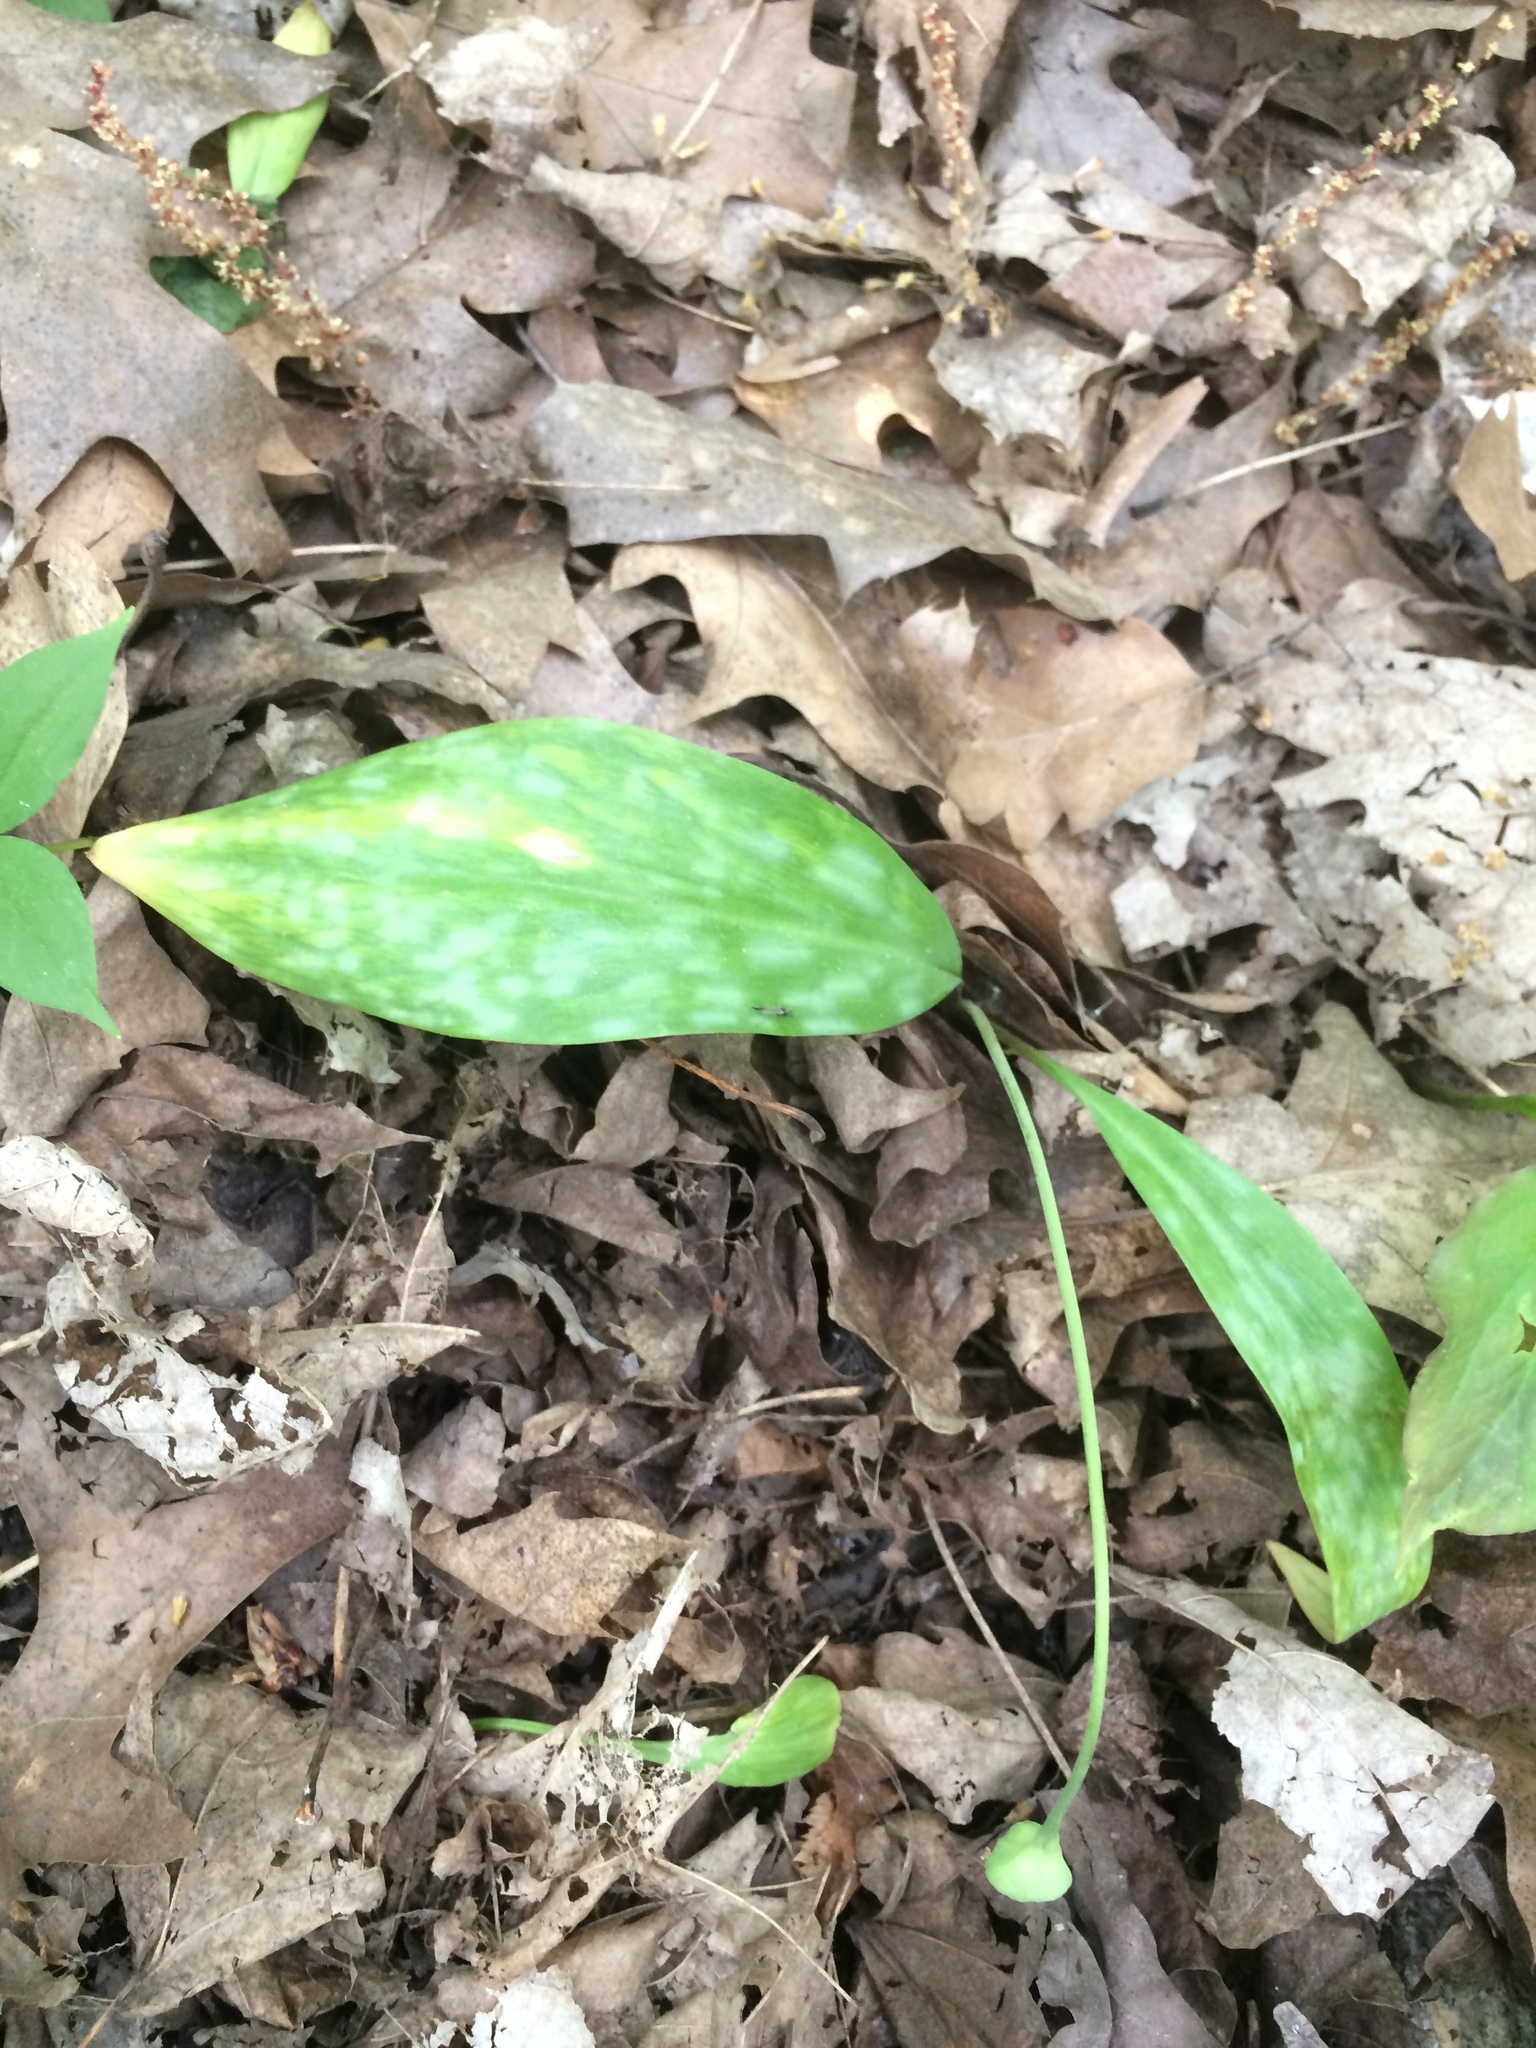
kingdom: Plantae
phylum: Tracheophyta
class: Liliopsida
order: Liliales
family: Liliaceae
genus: Erythronium
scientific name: Erythronium americanum
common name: Yellow adder's-tongue
